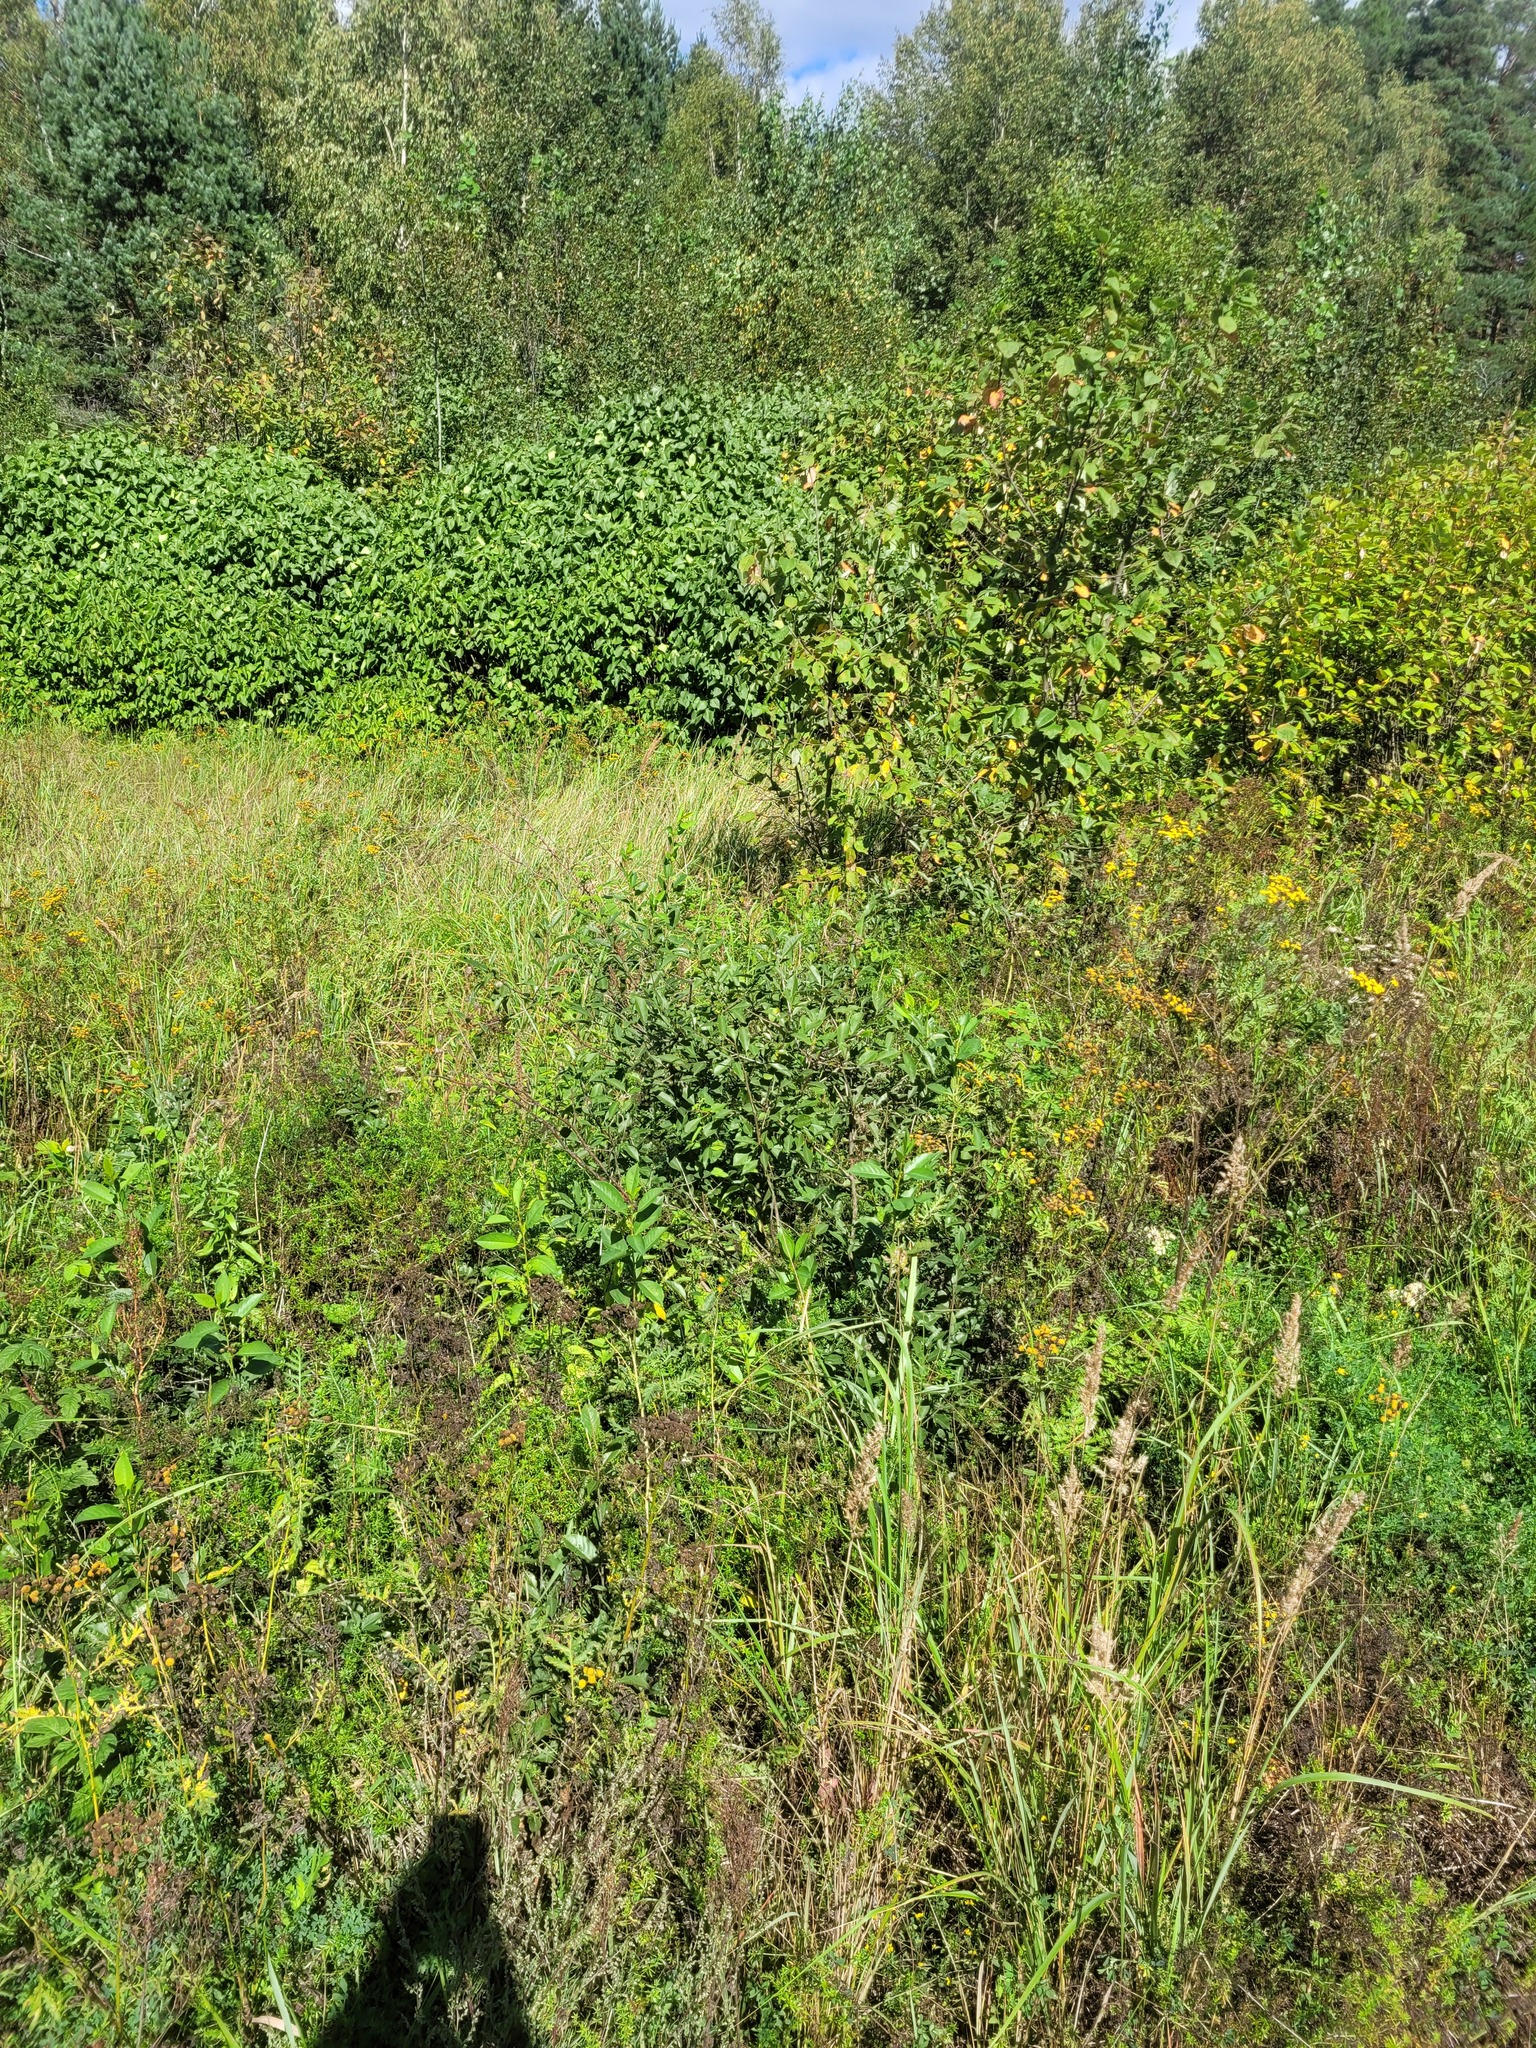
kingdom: Plantae
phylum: Tracheophyta
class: Magnoliopsida
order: Rosales
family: Rosaceae
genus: Prunus
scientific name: Prunus cerasus
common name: Morello cherry
